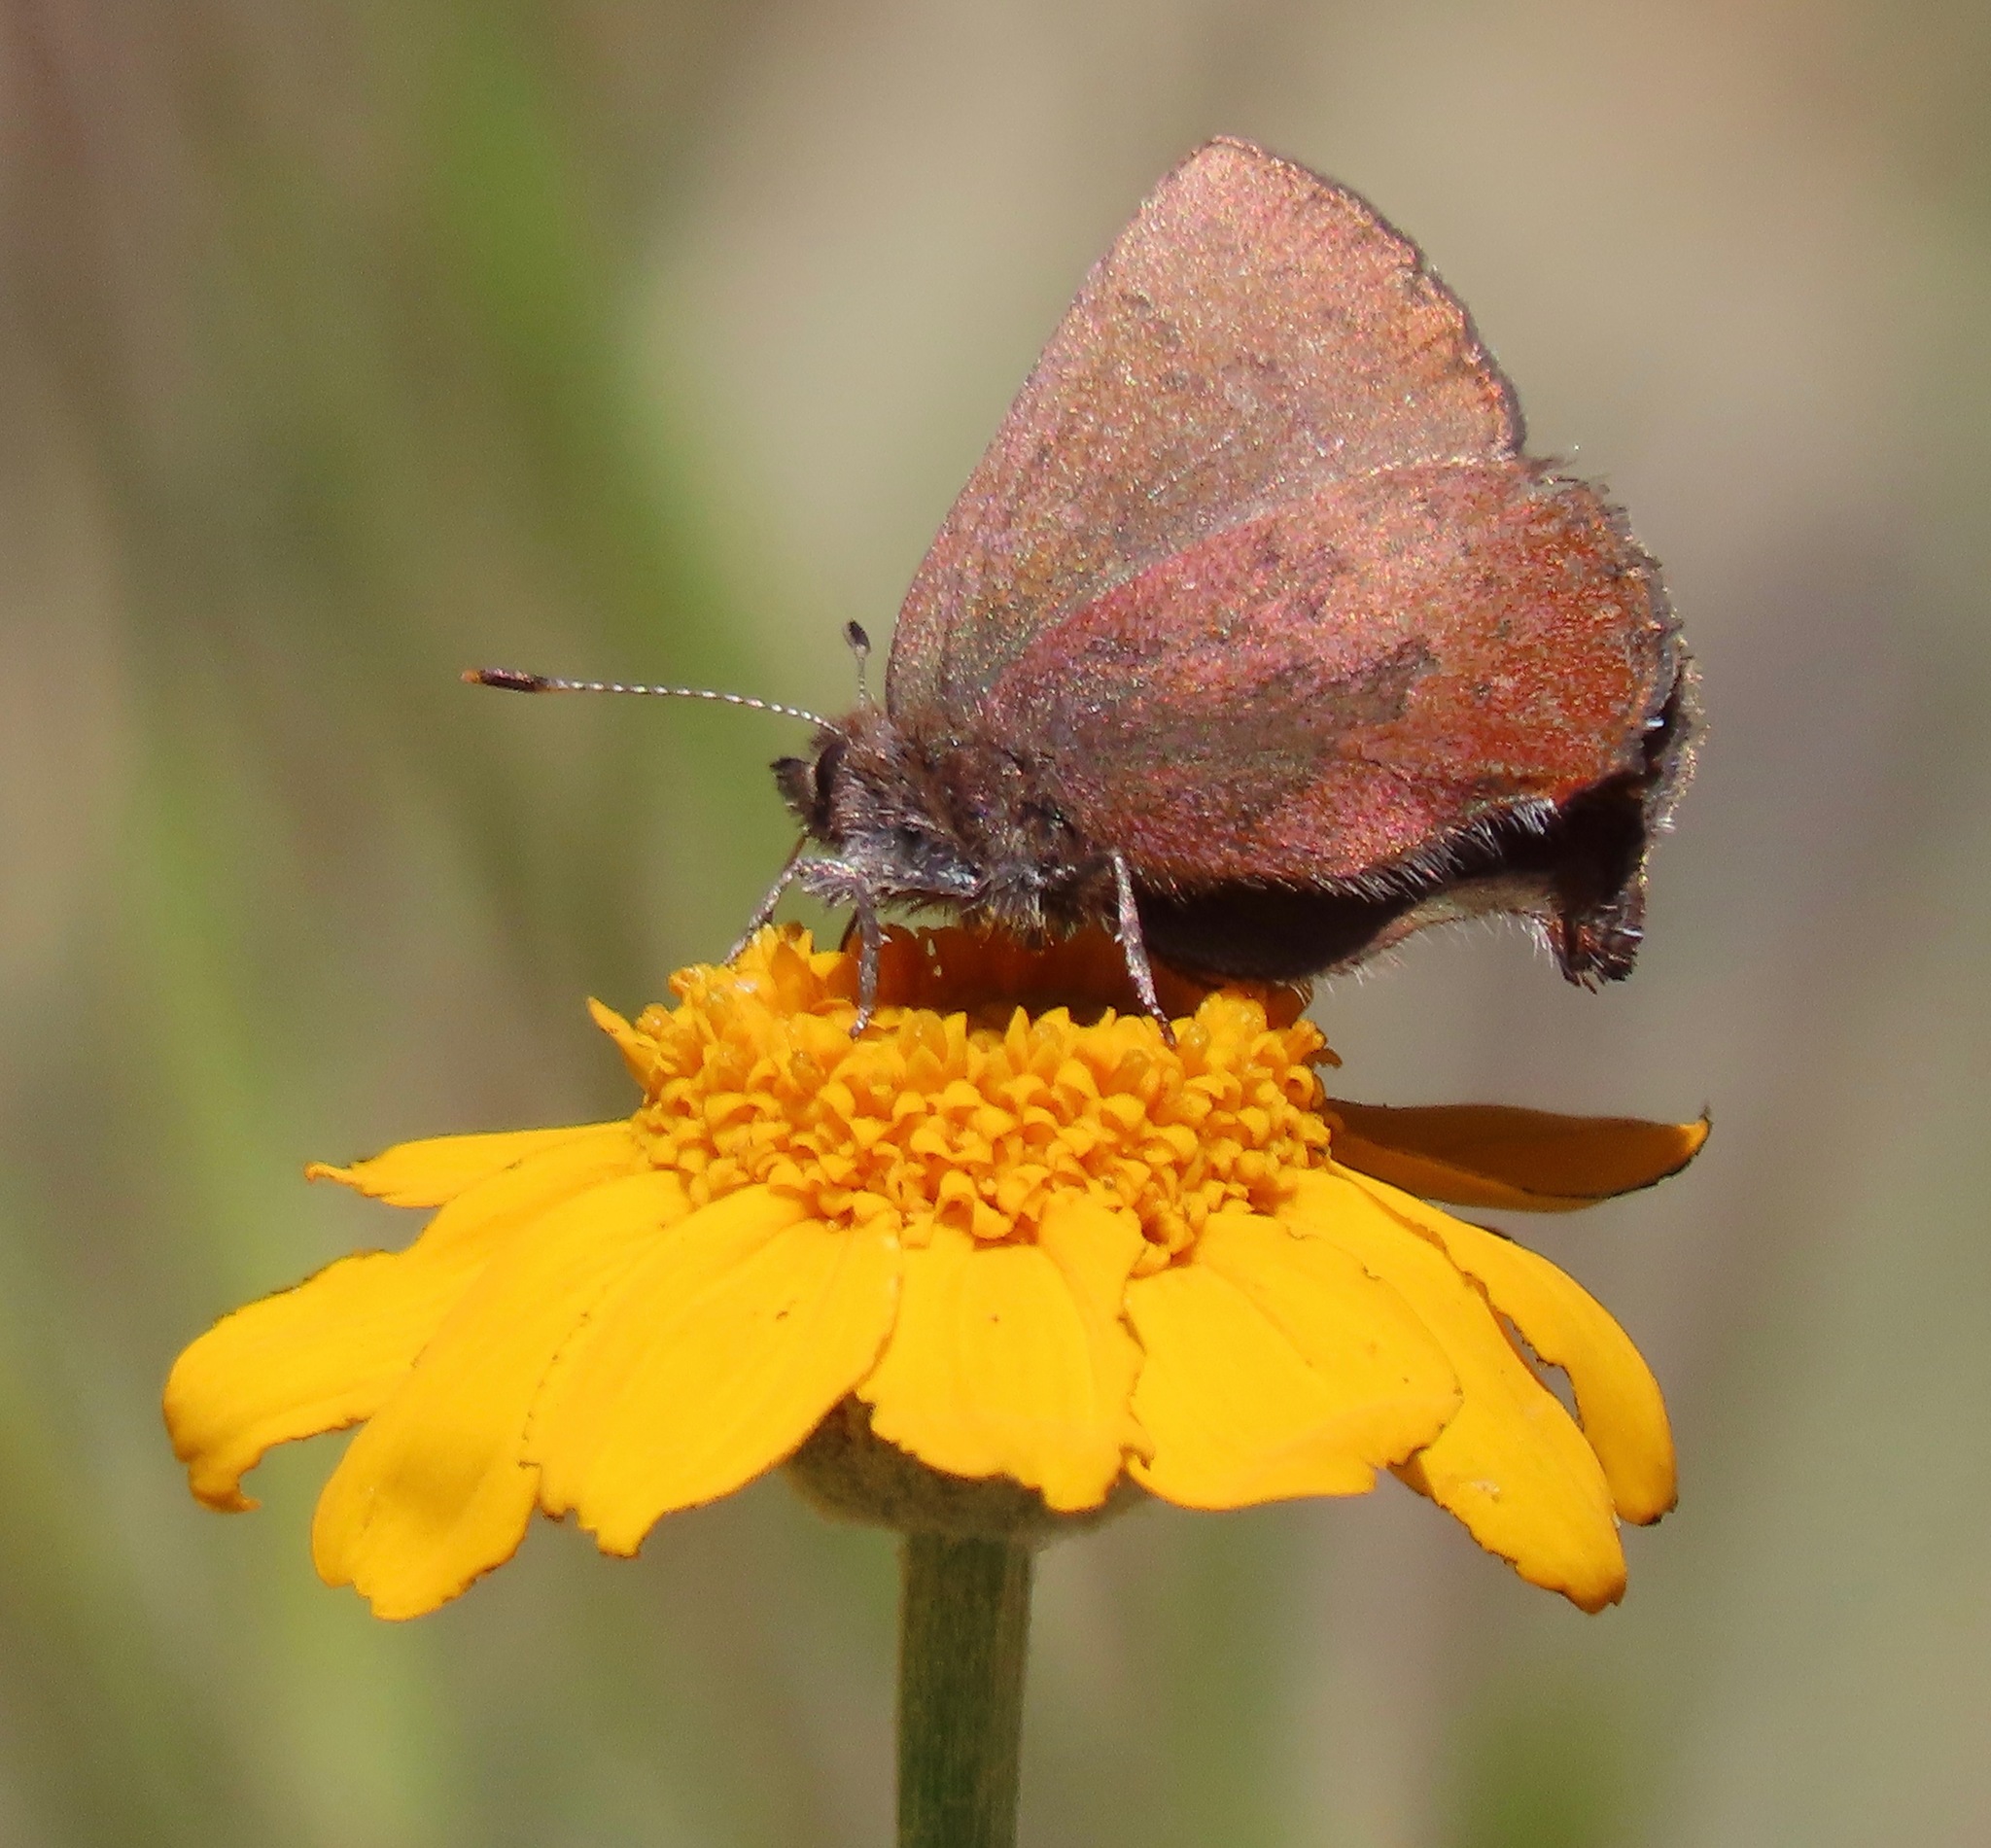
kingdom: Animalia
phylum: Arthropoda
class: Insecta
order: Lepidoptera
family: Lycaenidae
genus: Incisalia
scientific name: Incisalia irioides
